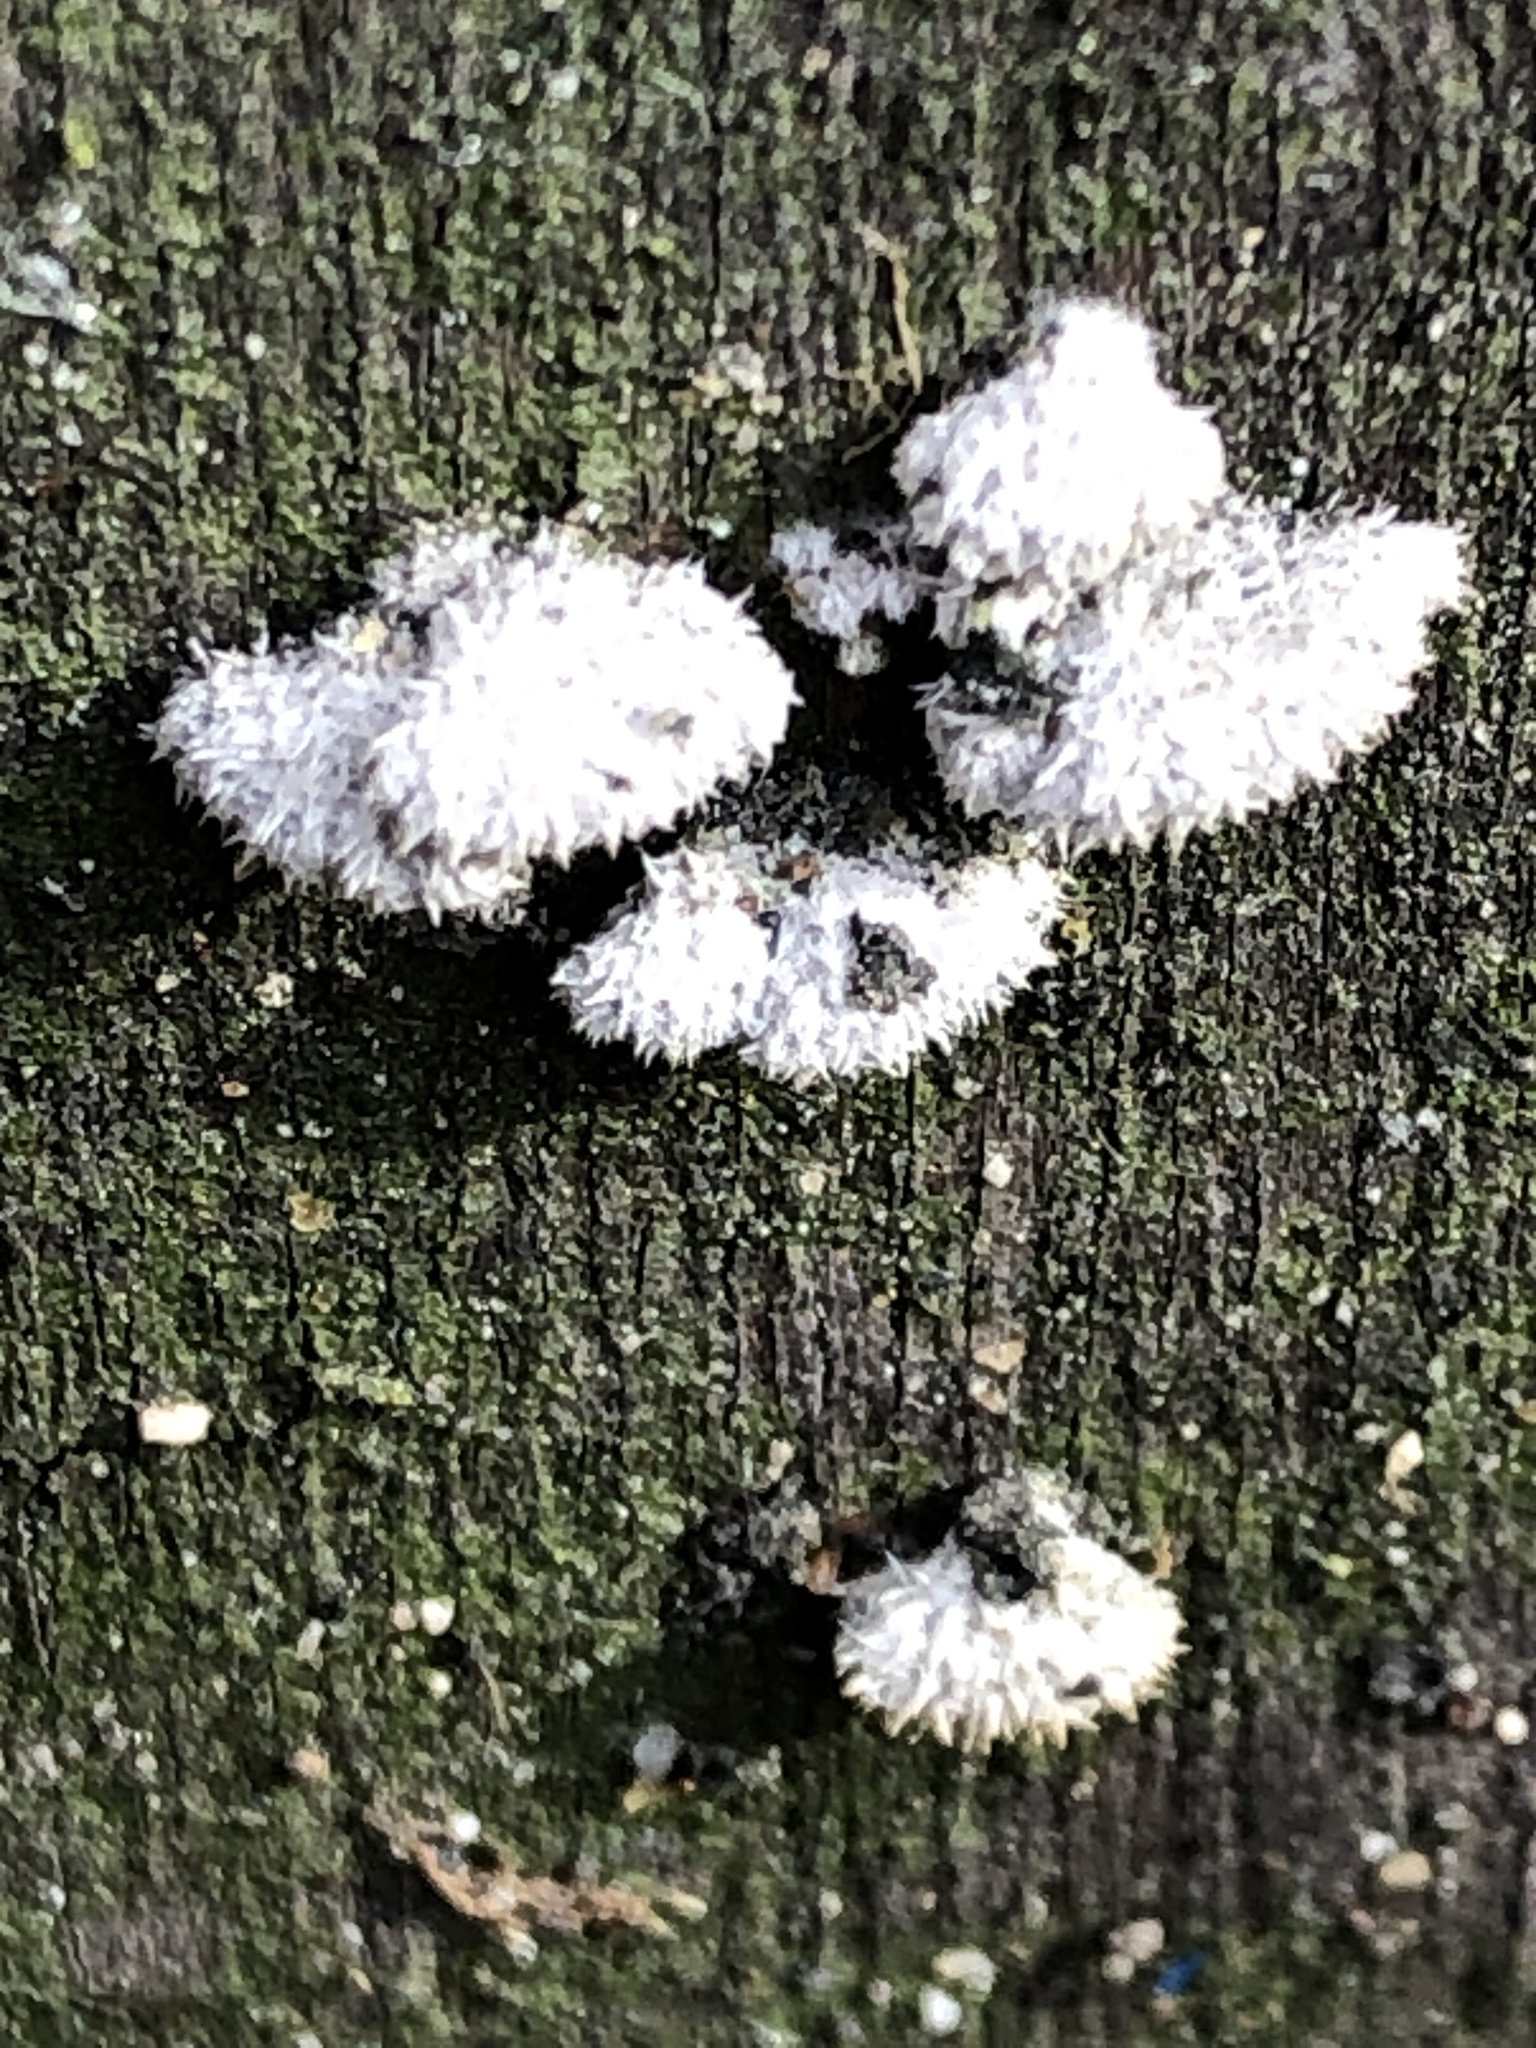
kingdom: Fungi
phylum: Basidiomycota
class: Agaricomycetes
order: Agaricales
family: Schizophyllaceae
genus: Schizophyllum
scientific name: Schizophyllum commune
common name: Common porecrust
